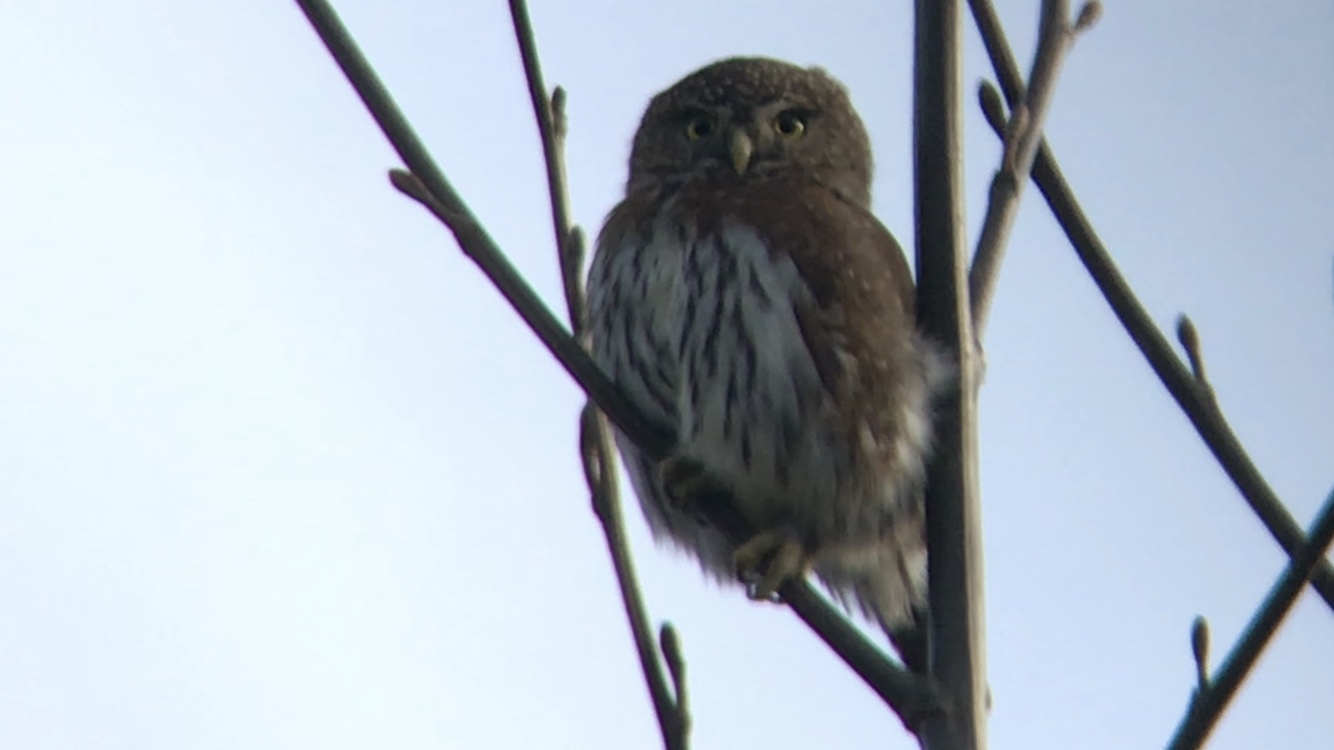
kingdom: Animalia
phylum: Chordata
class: Aves
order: Strigiformes
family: Strigidae
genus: Glaucidium
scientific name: Glaucidium gnoma
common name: Northern pygmy-owl
